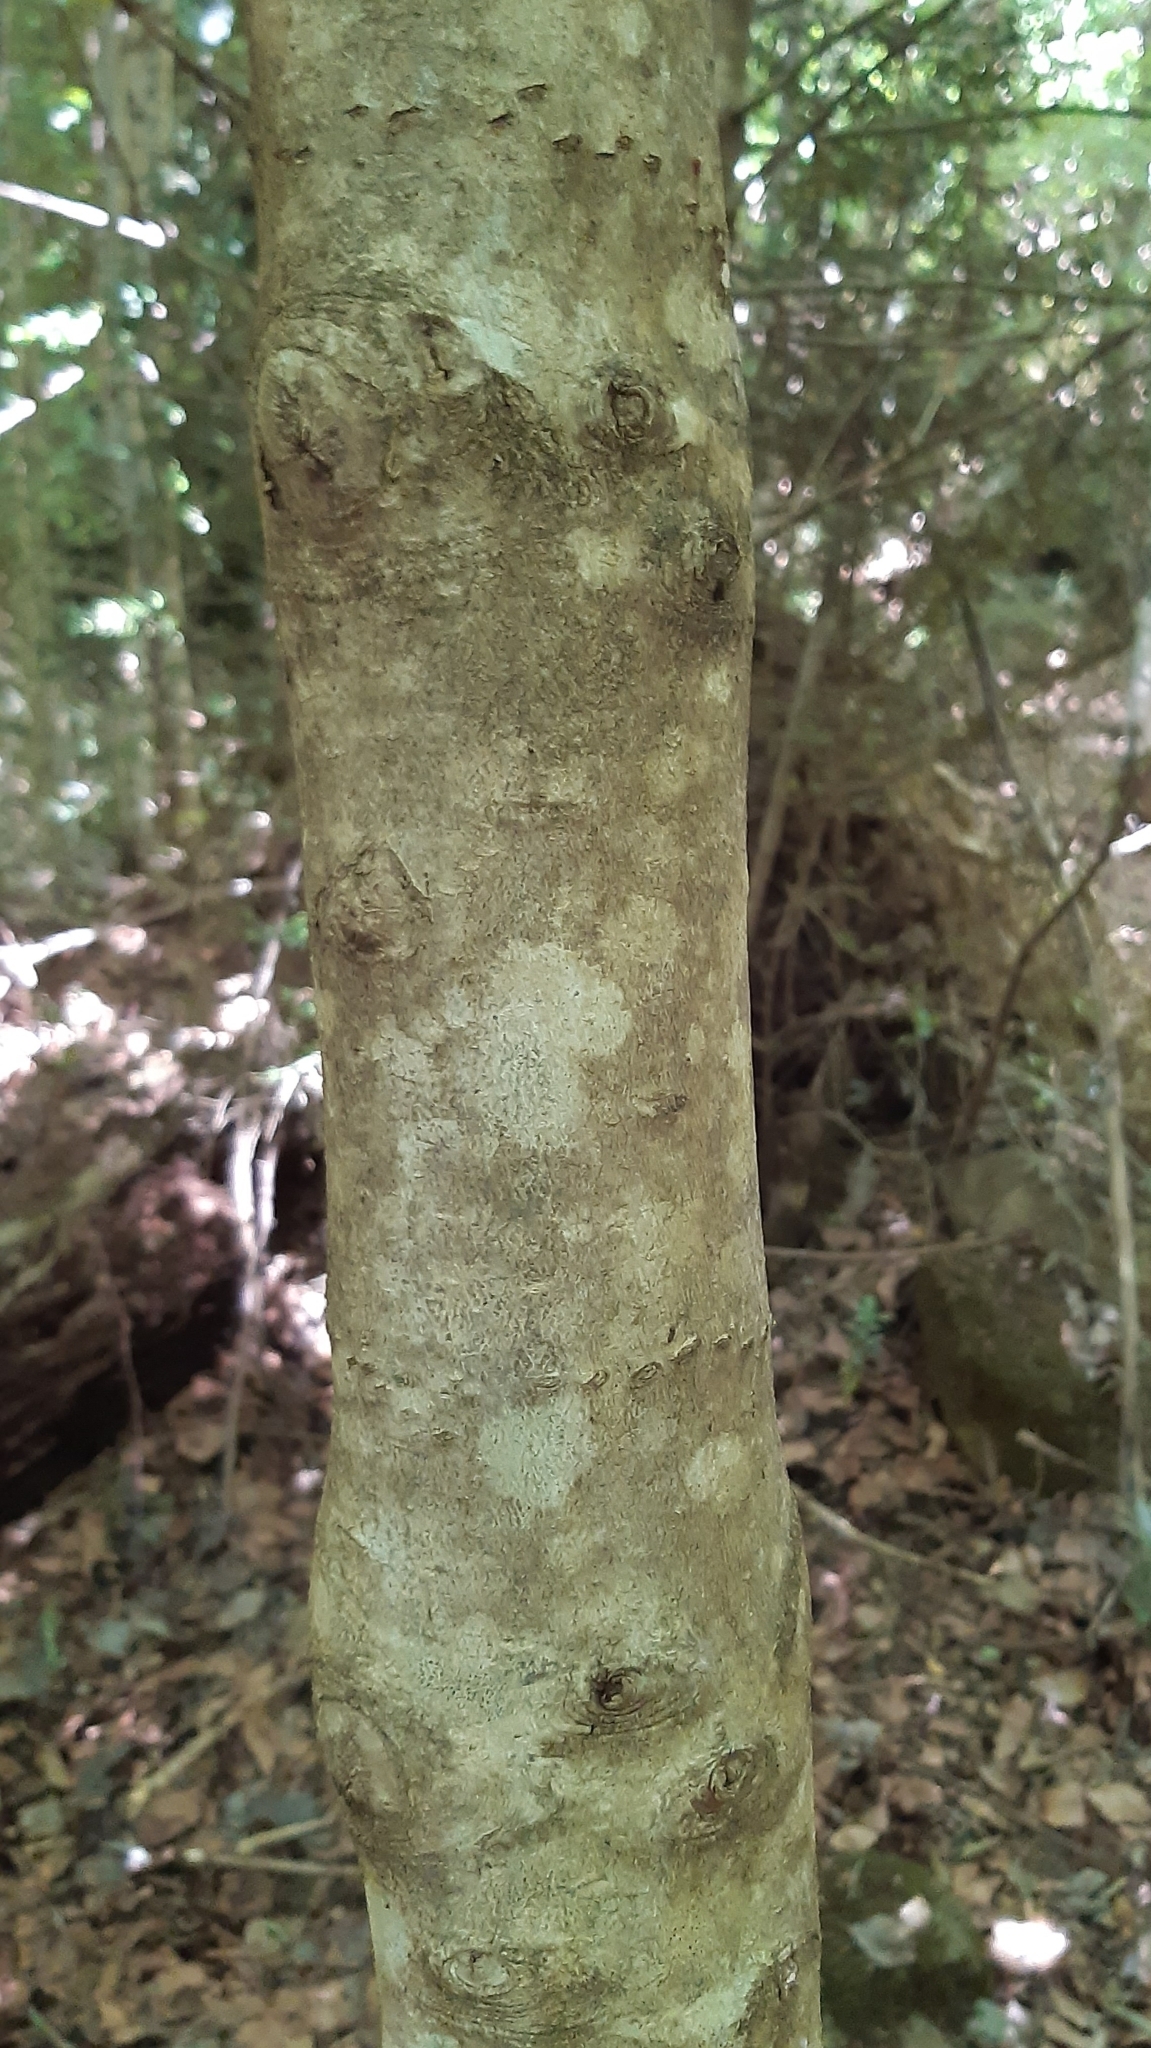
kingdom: Plantae
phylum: Tracheophyta
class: Magnoliopsida
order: Aquifoliales
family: Aquifoliaceae
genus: Ilex
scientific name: Ilex aquifolium
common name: English holly
